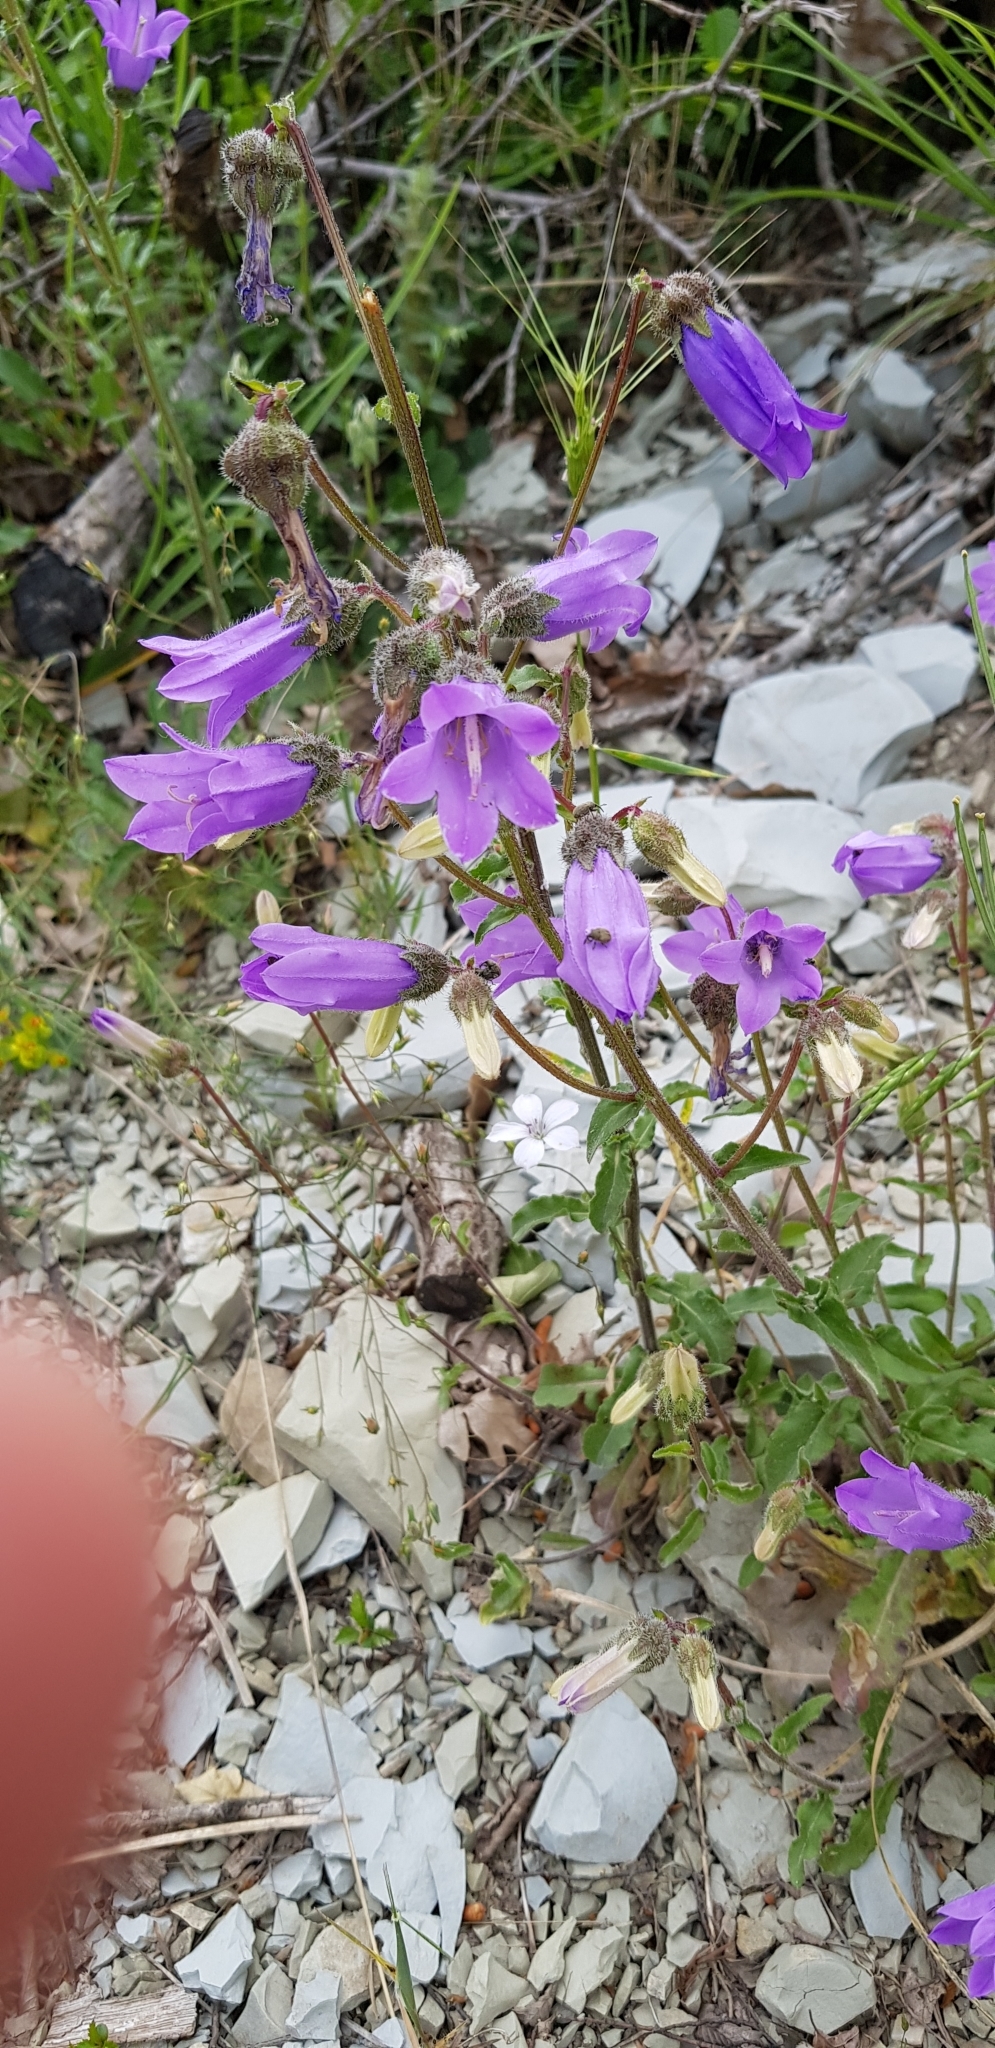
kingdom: Plantae
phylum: Tracheophyta
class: Magnoliopsida
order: Asterales
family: Campanulaceae
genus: Campanula
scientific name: Campanula komarovii
